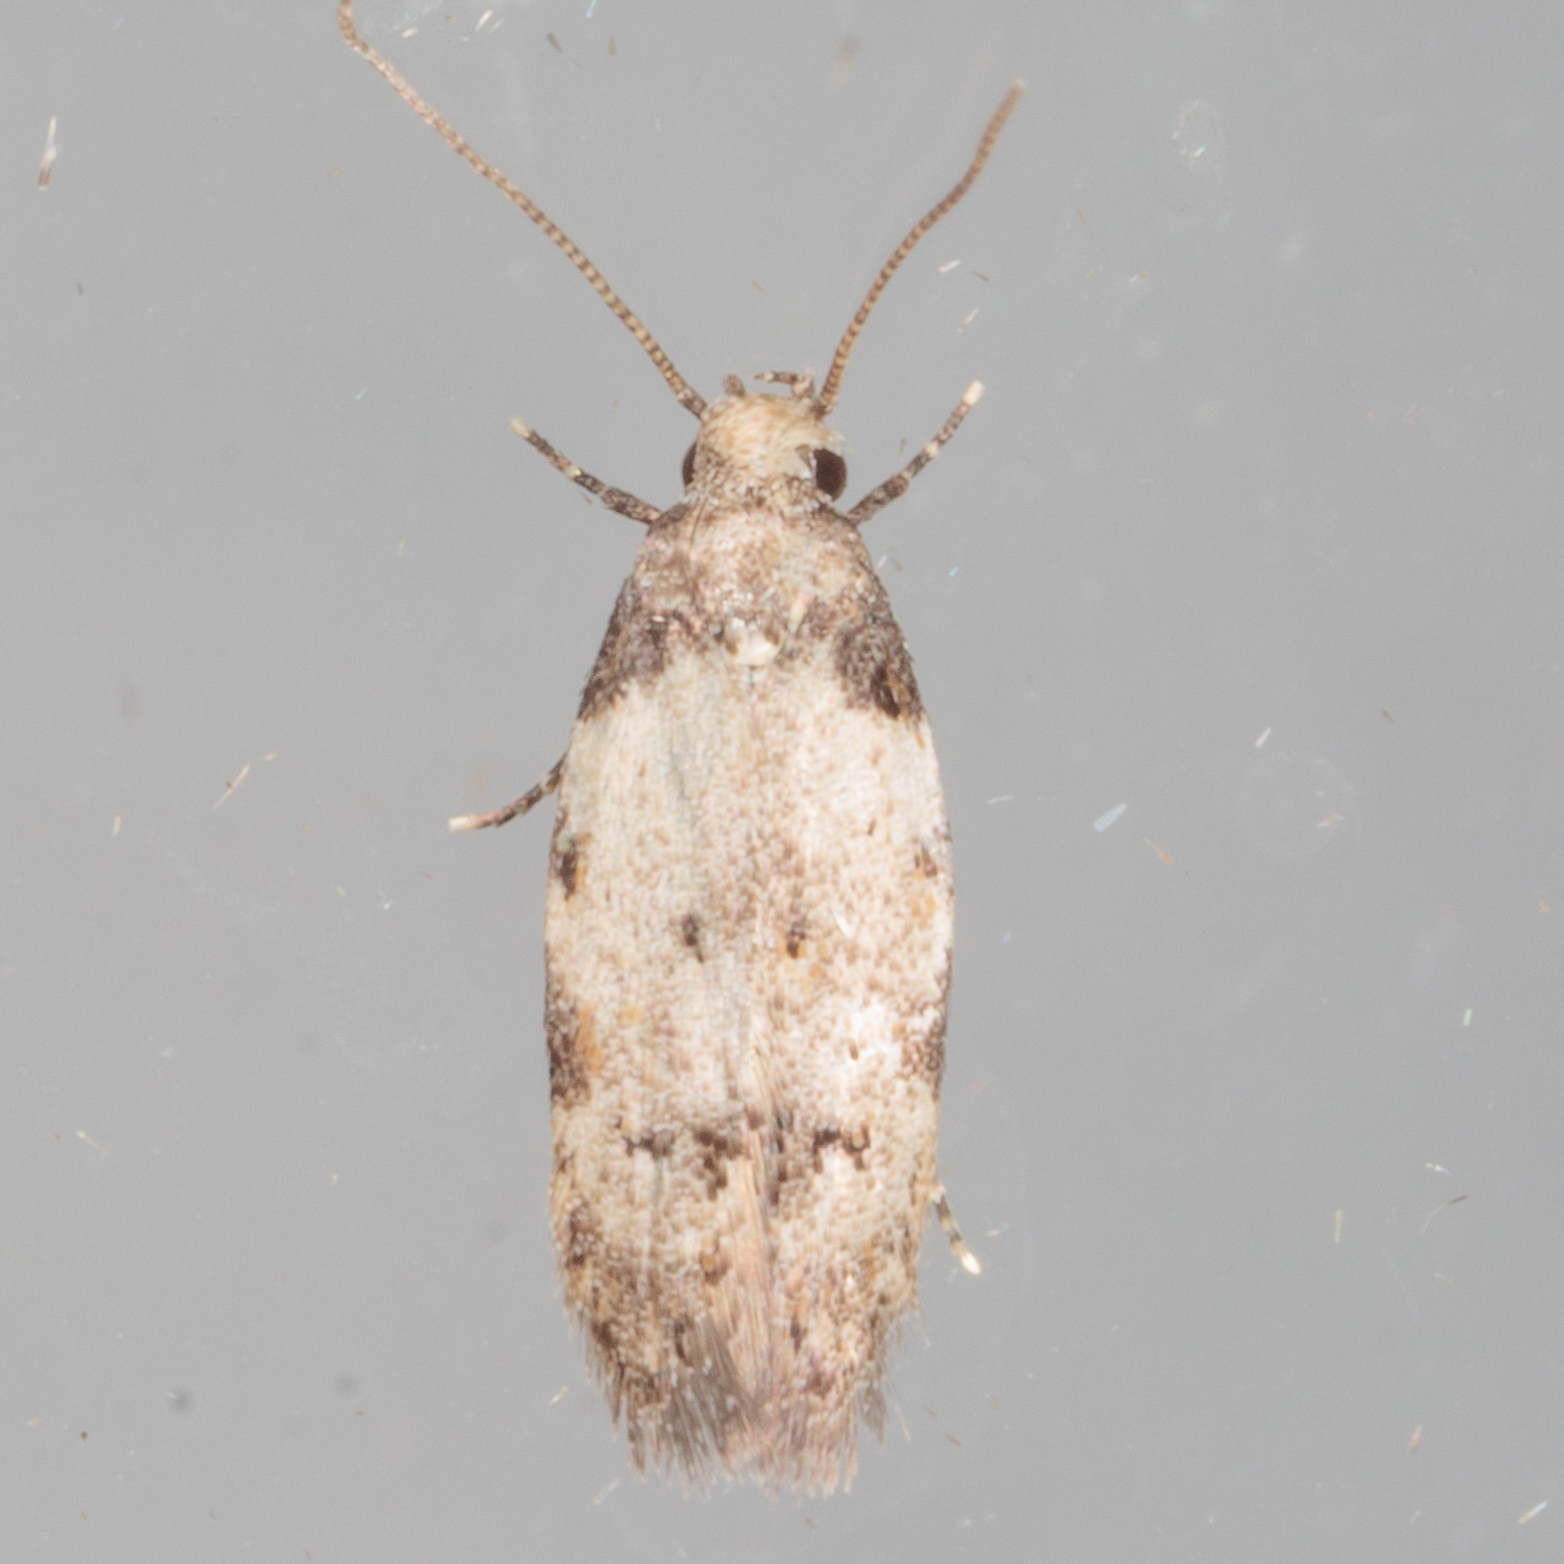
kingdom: Animalia
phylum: Arthropoda
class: Insecta
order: Lepidoptera
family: Autostichidae
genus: Taygete
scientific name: Taygete attributella
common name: Triangle-marked twirler moth
